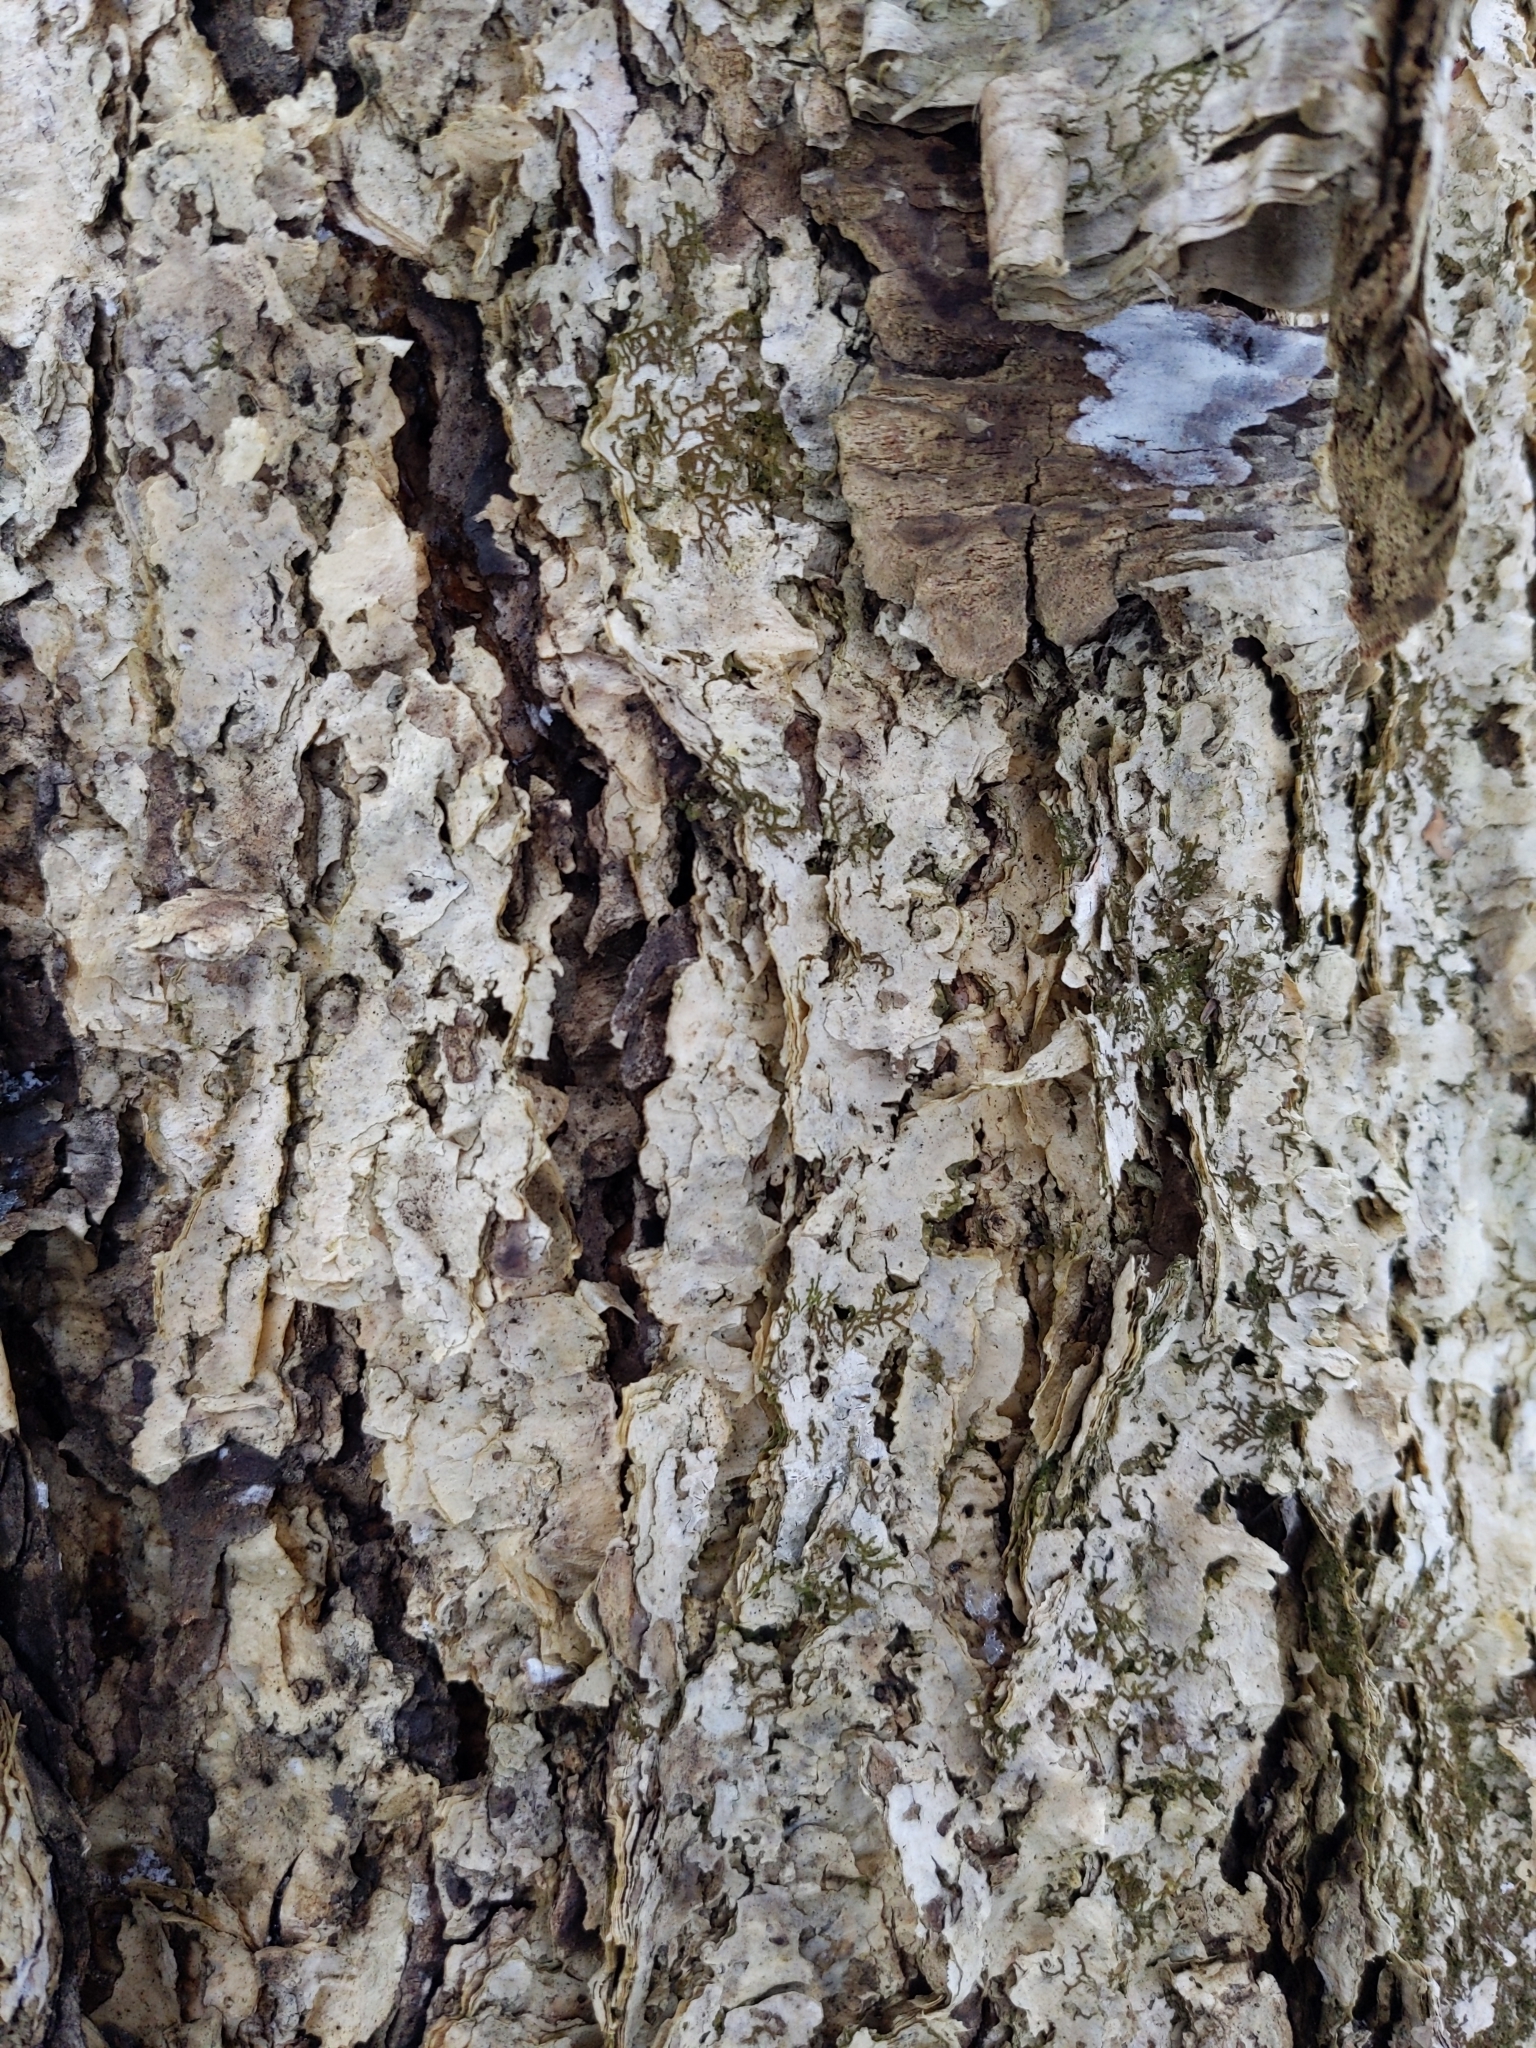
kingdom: Plantae
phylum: Tracheophyta
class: Magnoliopsida
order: Fagales
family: Betulaceae
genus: Betula
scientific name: Betula alleghaniensis
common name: Yellow birch
